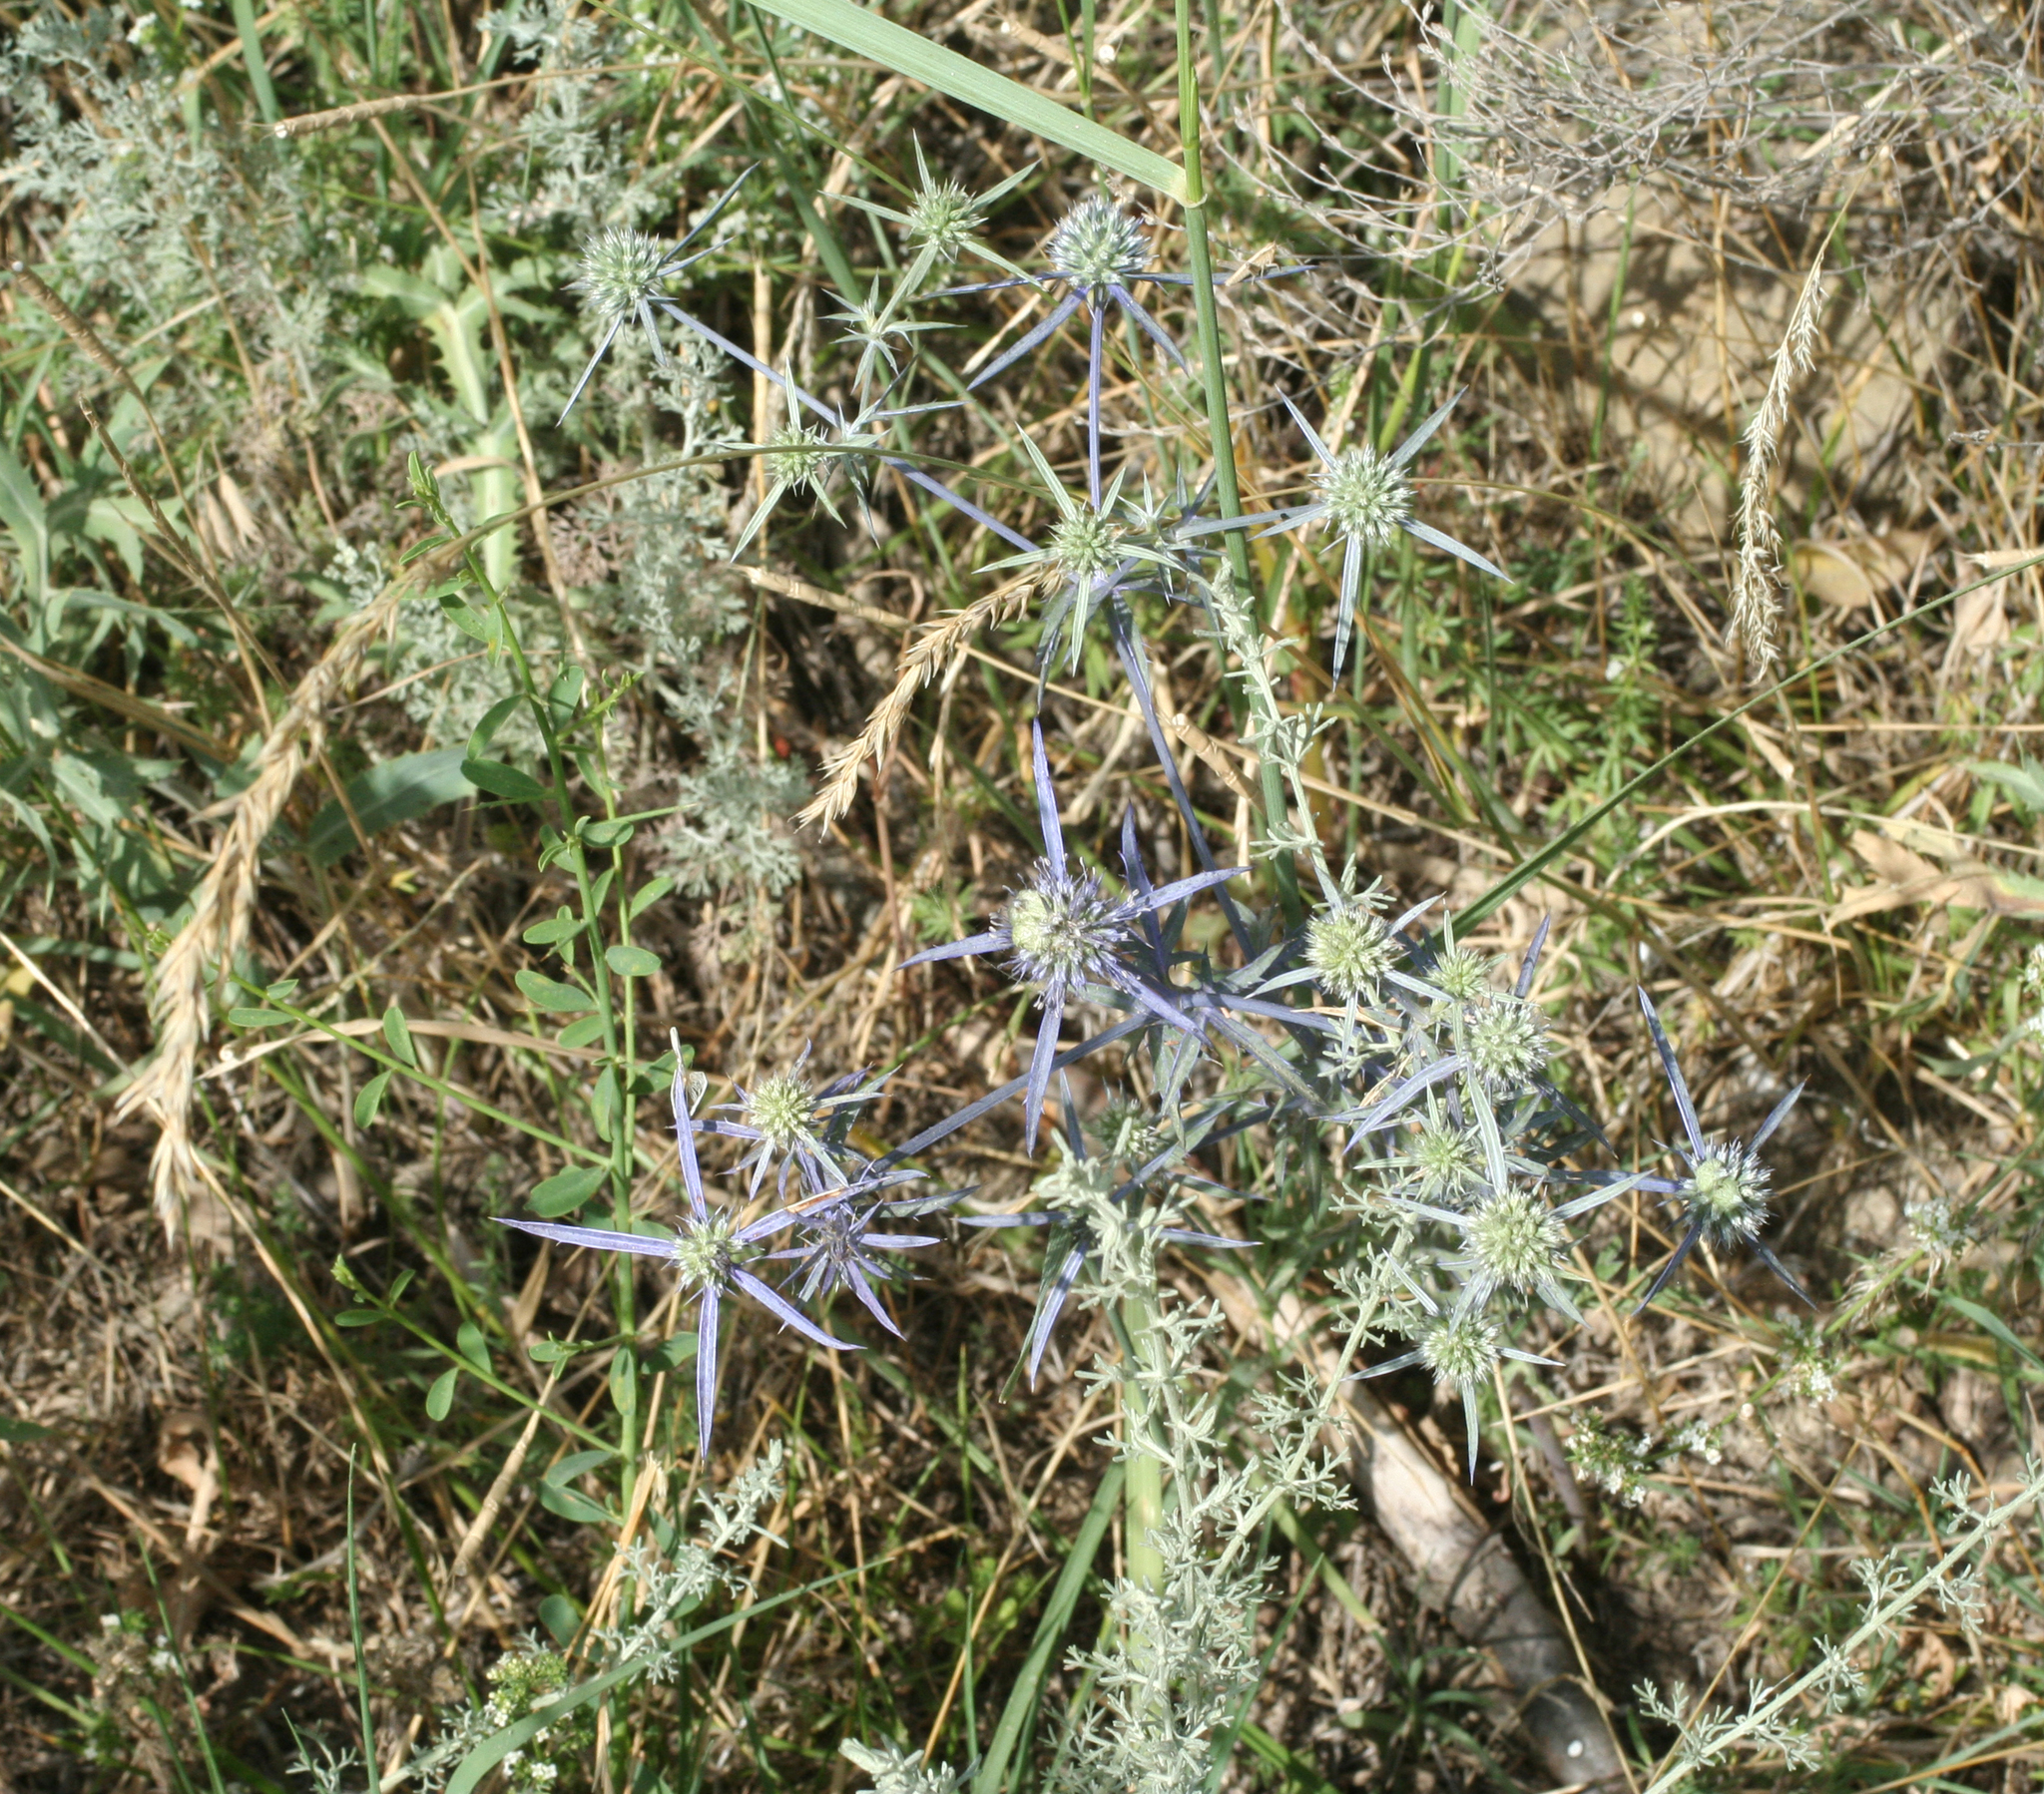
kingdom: Plantae
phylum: Tracheophyta
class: Magnoliopsida
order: Apiales
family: Apiaceae
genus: Eryngium
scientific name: Eryngium caeruleum
